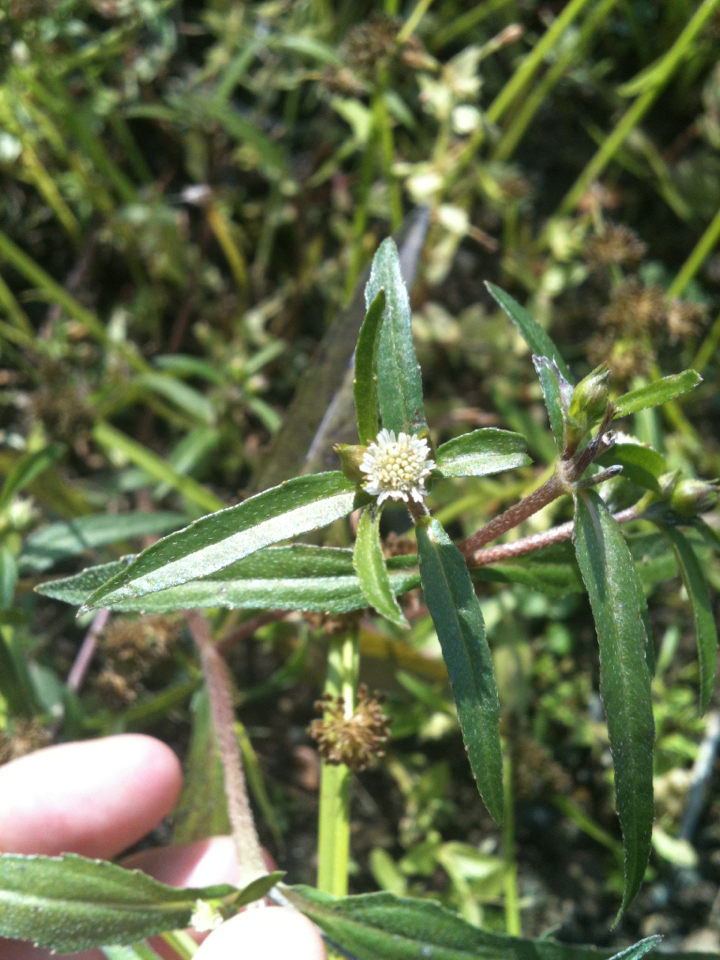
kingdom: Plantae
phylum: Tracheophyta
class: Magnoliopsida
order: Asterales
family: Asteraceae
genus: Eclipta
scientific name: Eclipta prostrata
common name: False daisy
